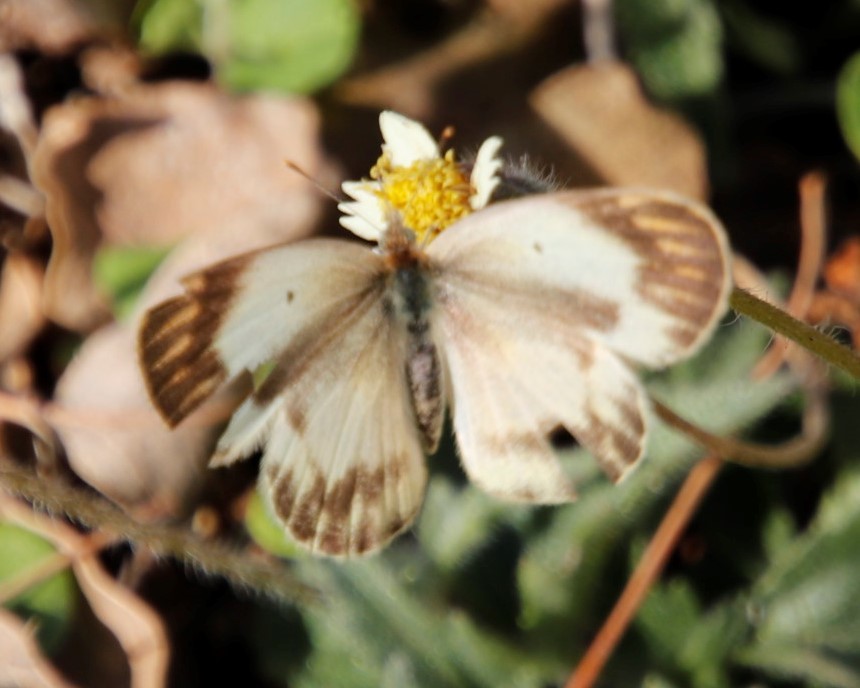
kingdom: Plantae
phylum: Tracheophyta
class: Magnoliopsida
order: Asterales
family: Asteraceae
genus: Tridax
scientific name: Tridax procumbens
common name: Coatbuttons
